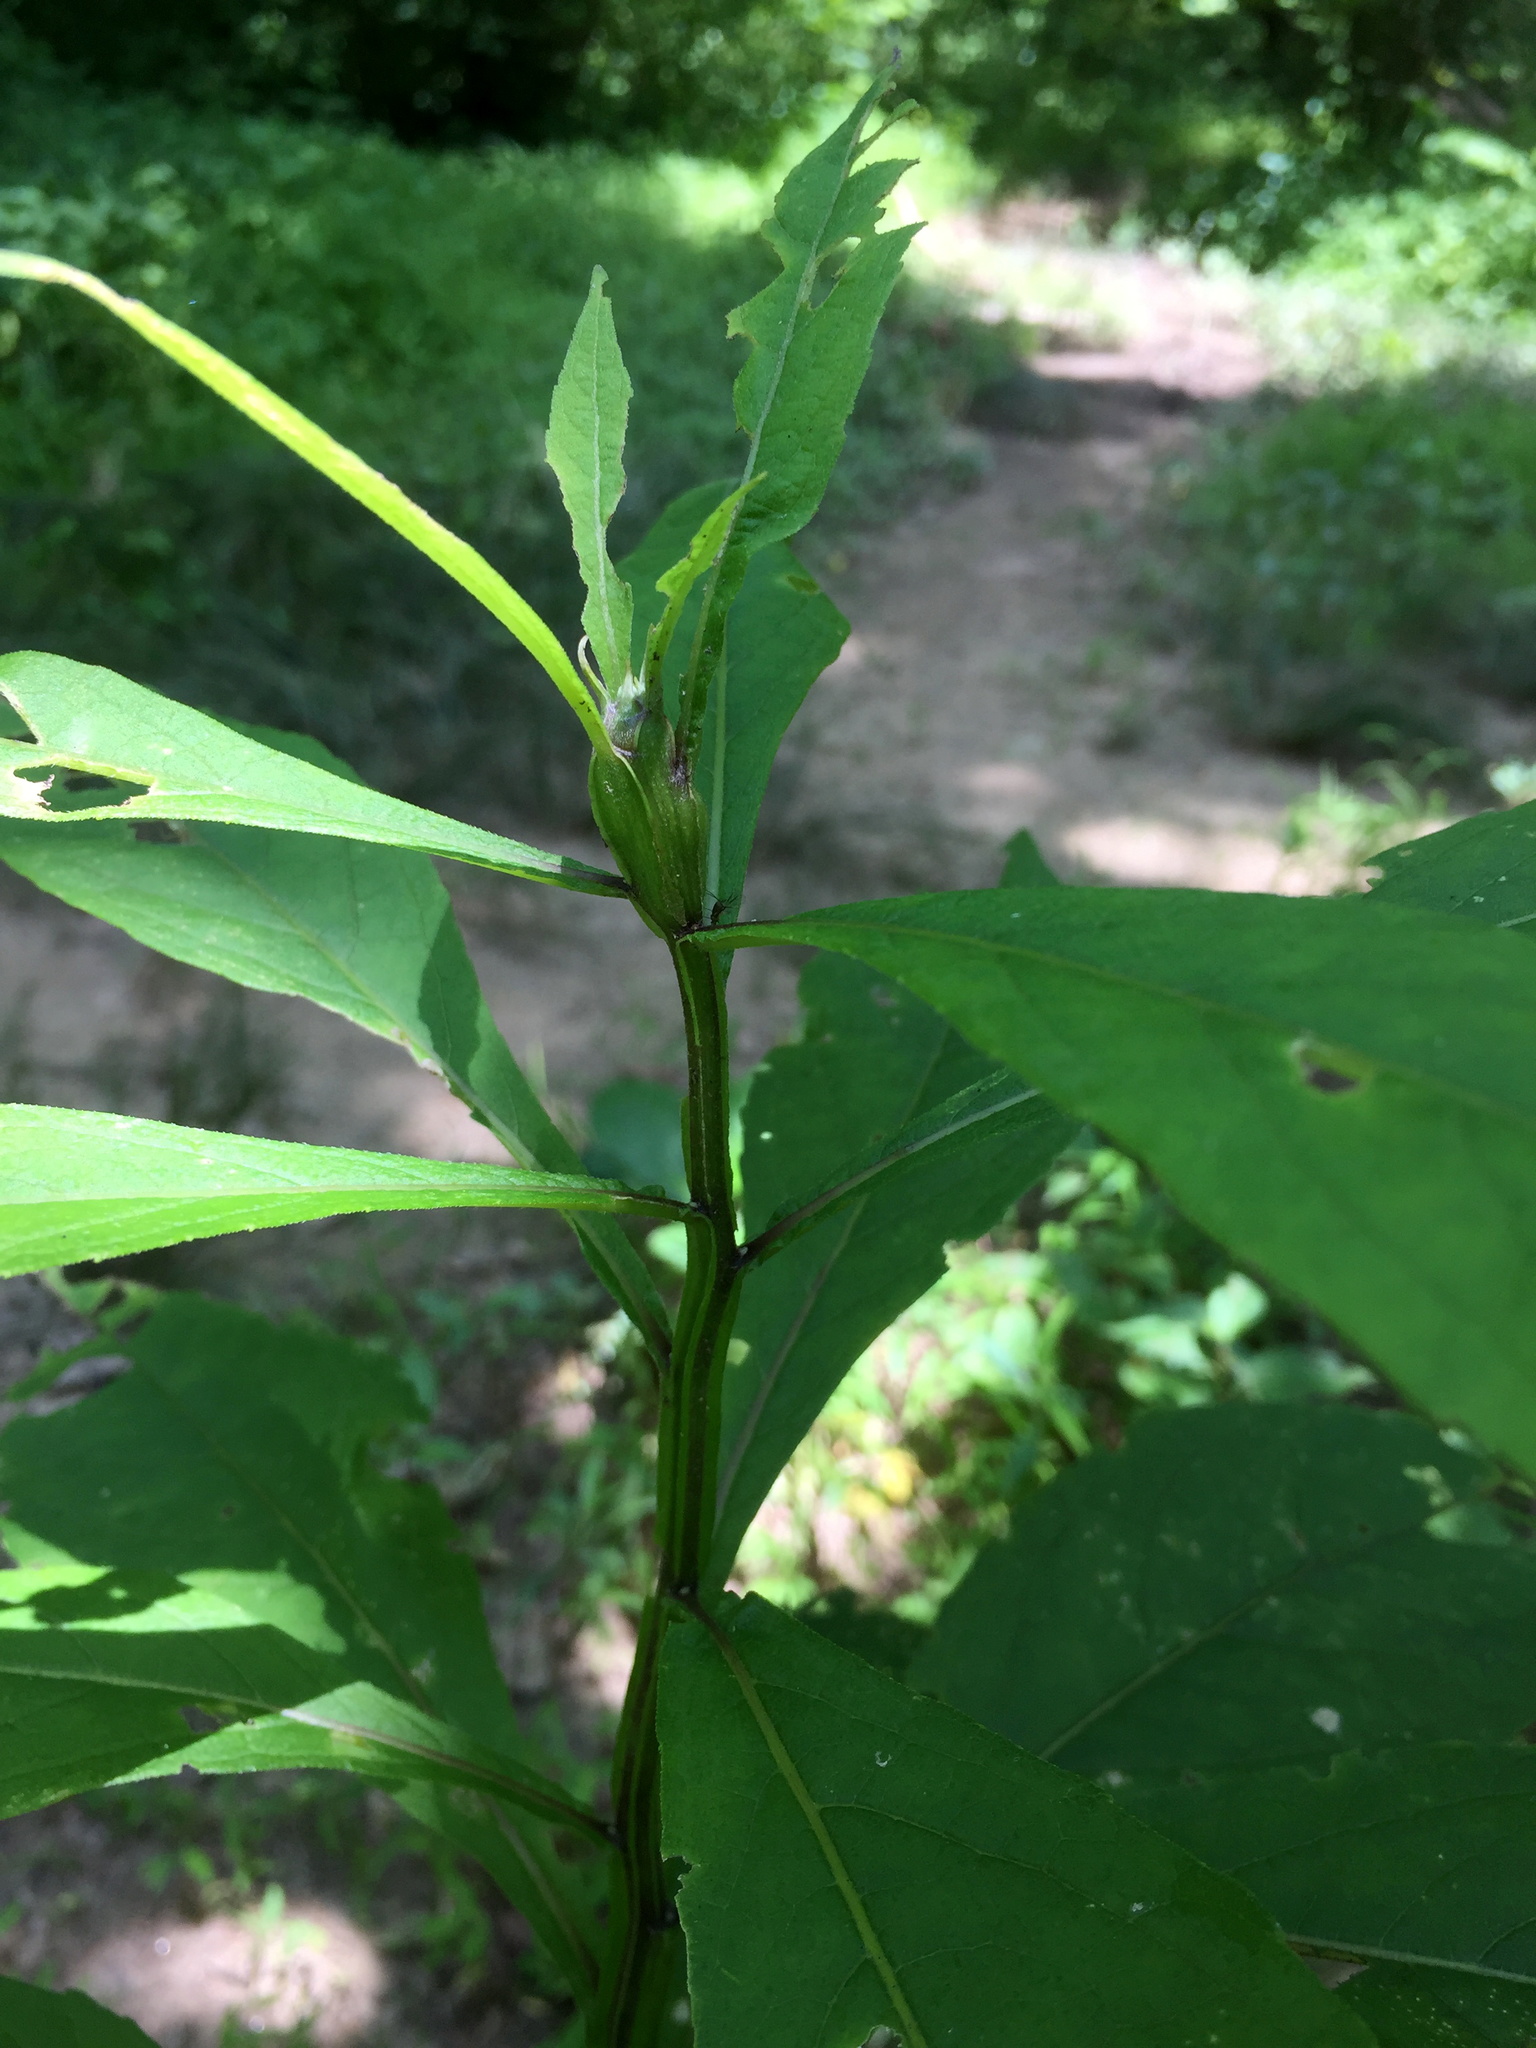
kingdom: Animalia
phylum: Arthropoda
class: Insecta
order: Diptera
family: Cecidomyiidae
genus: Neolasioptera
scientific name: Neolasioptera verbesinae
